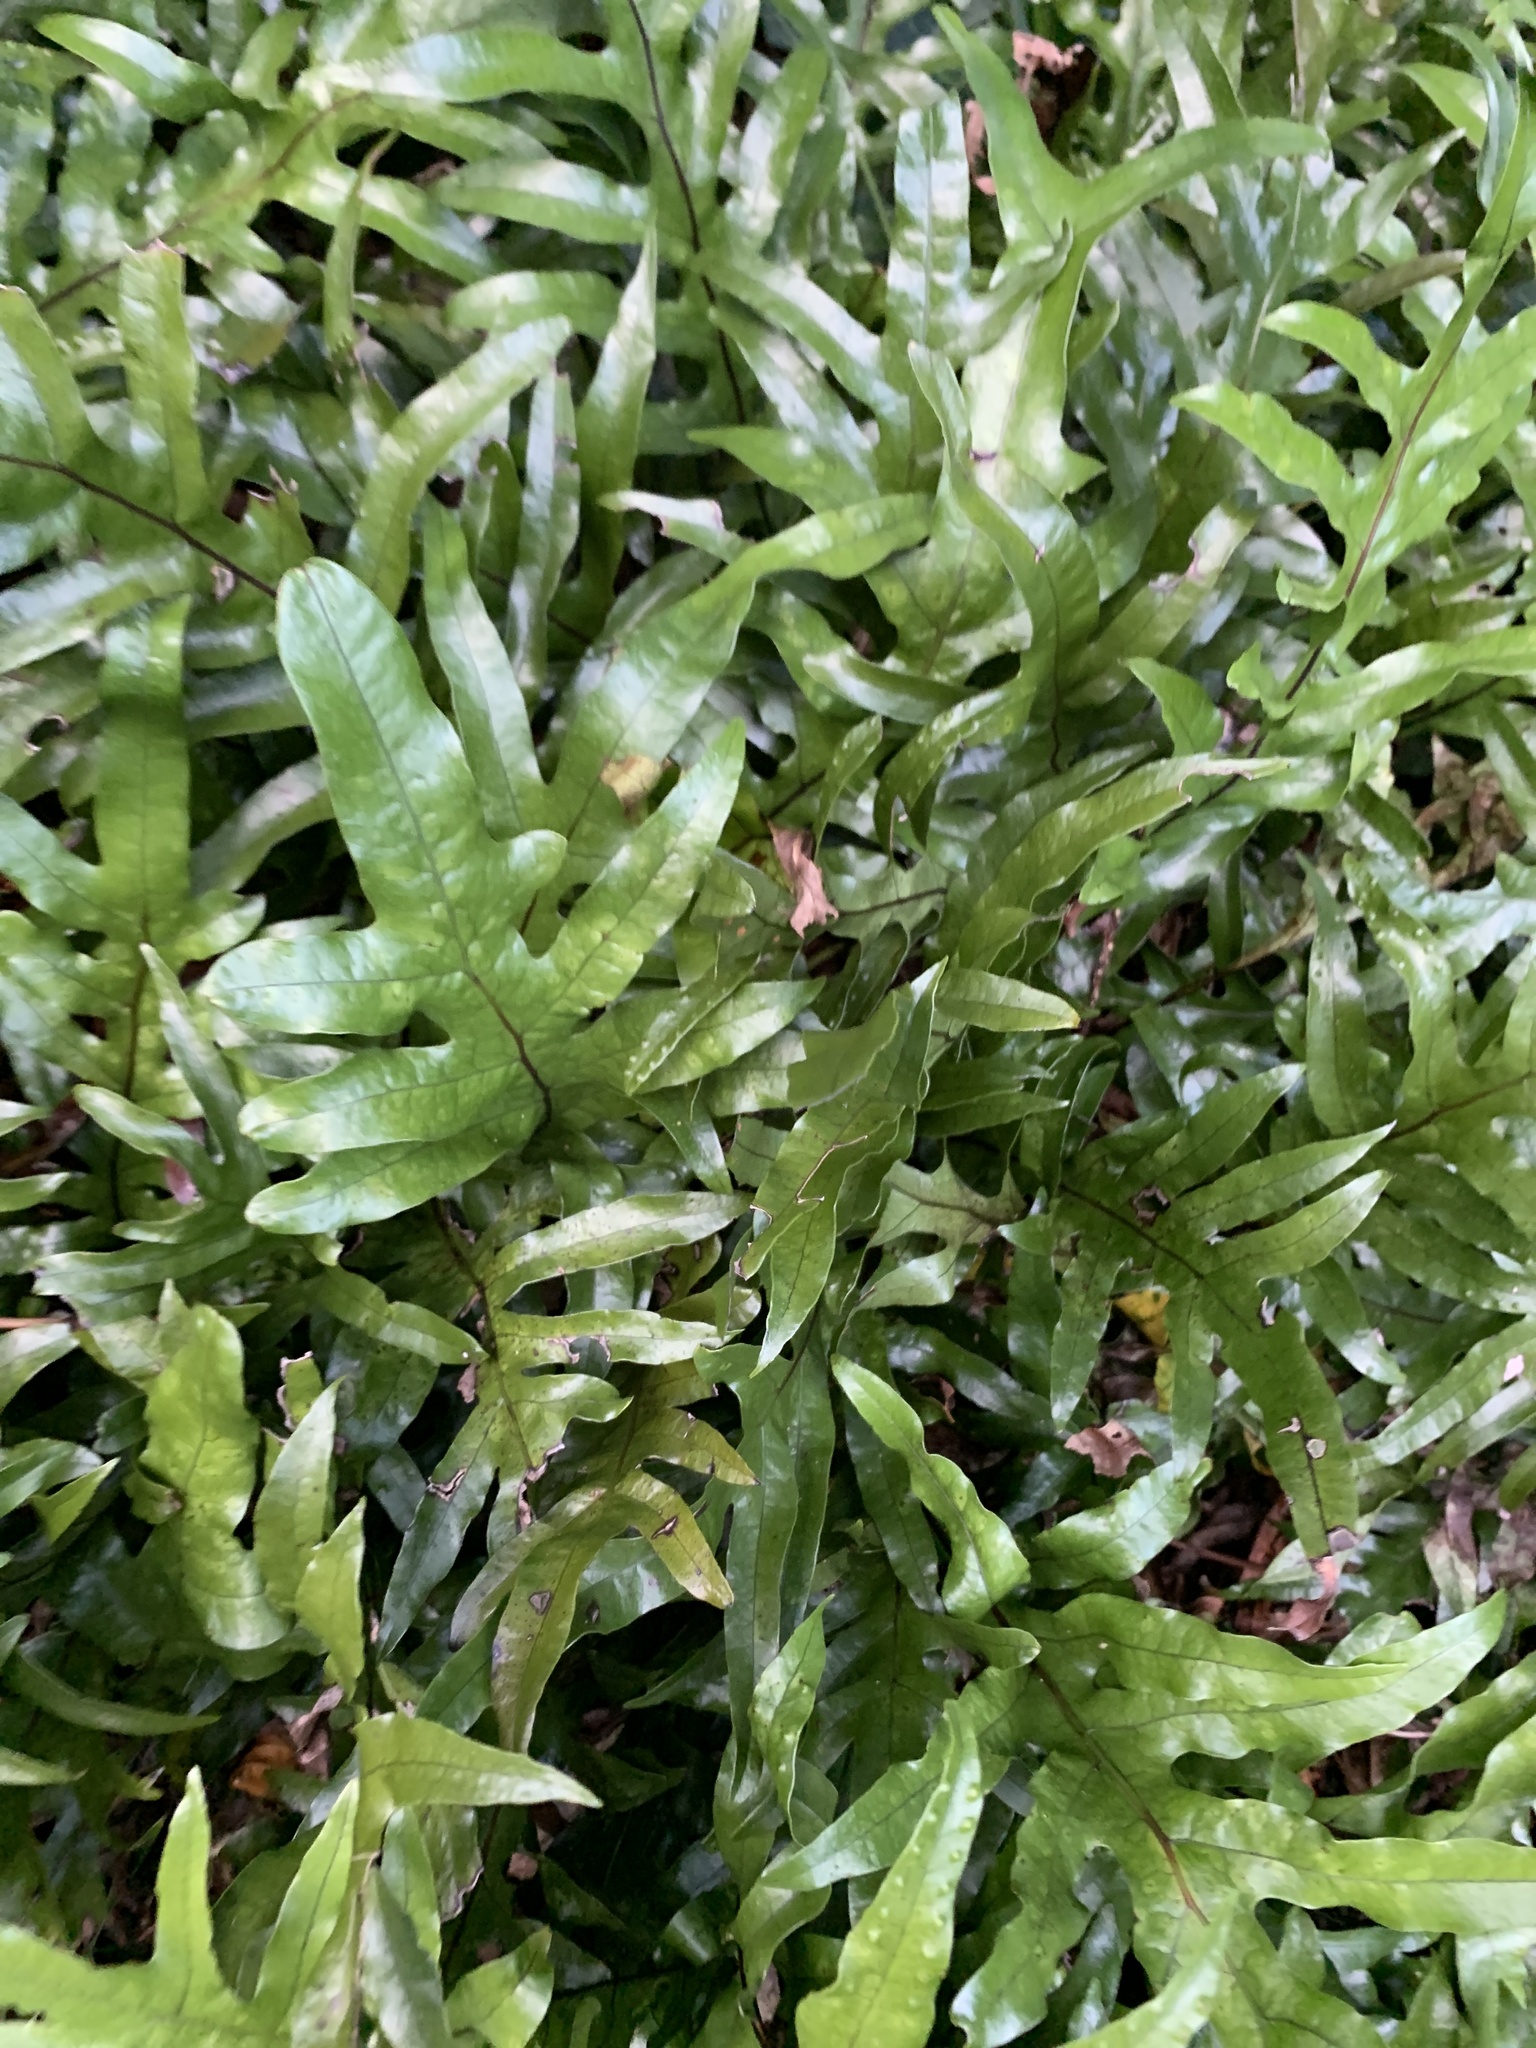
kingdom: Plantae
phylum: Tracheophyta
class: Polypodiopsida
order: Polypodiales
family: Polypodiaceae
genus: Lecanopteris
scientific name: Lecanopteris pustulata
